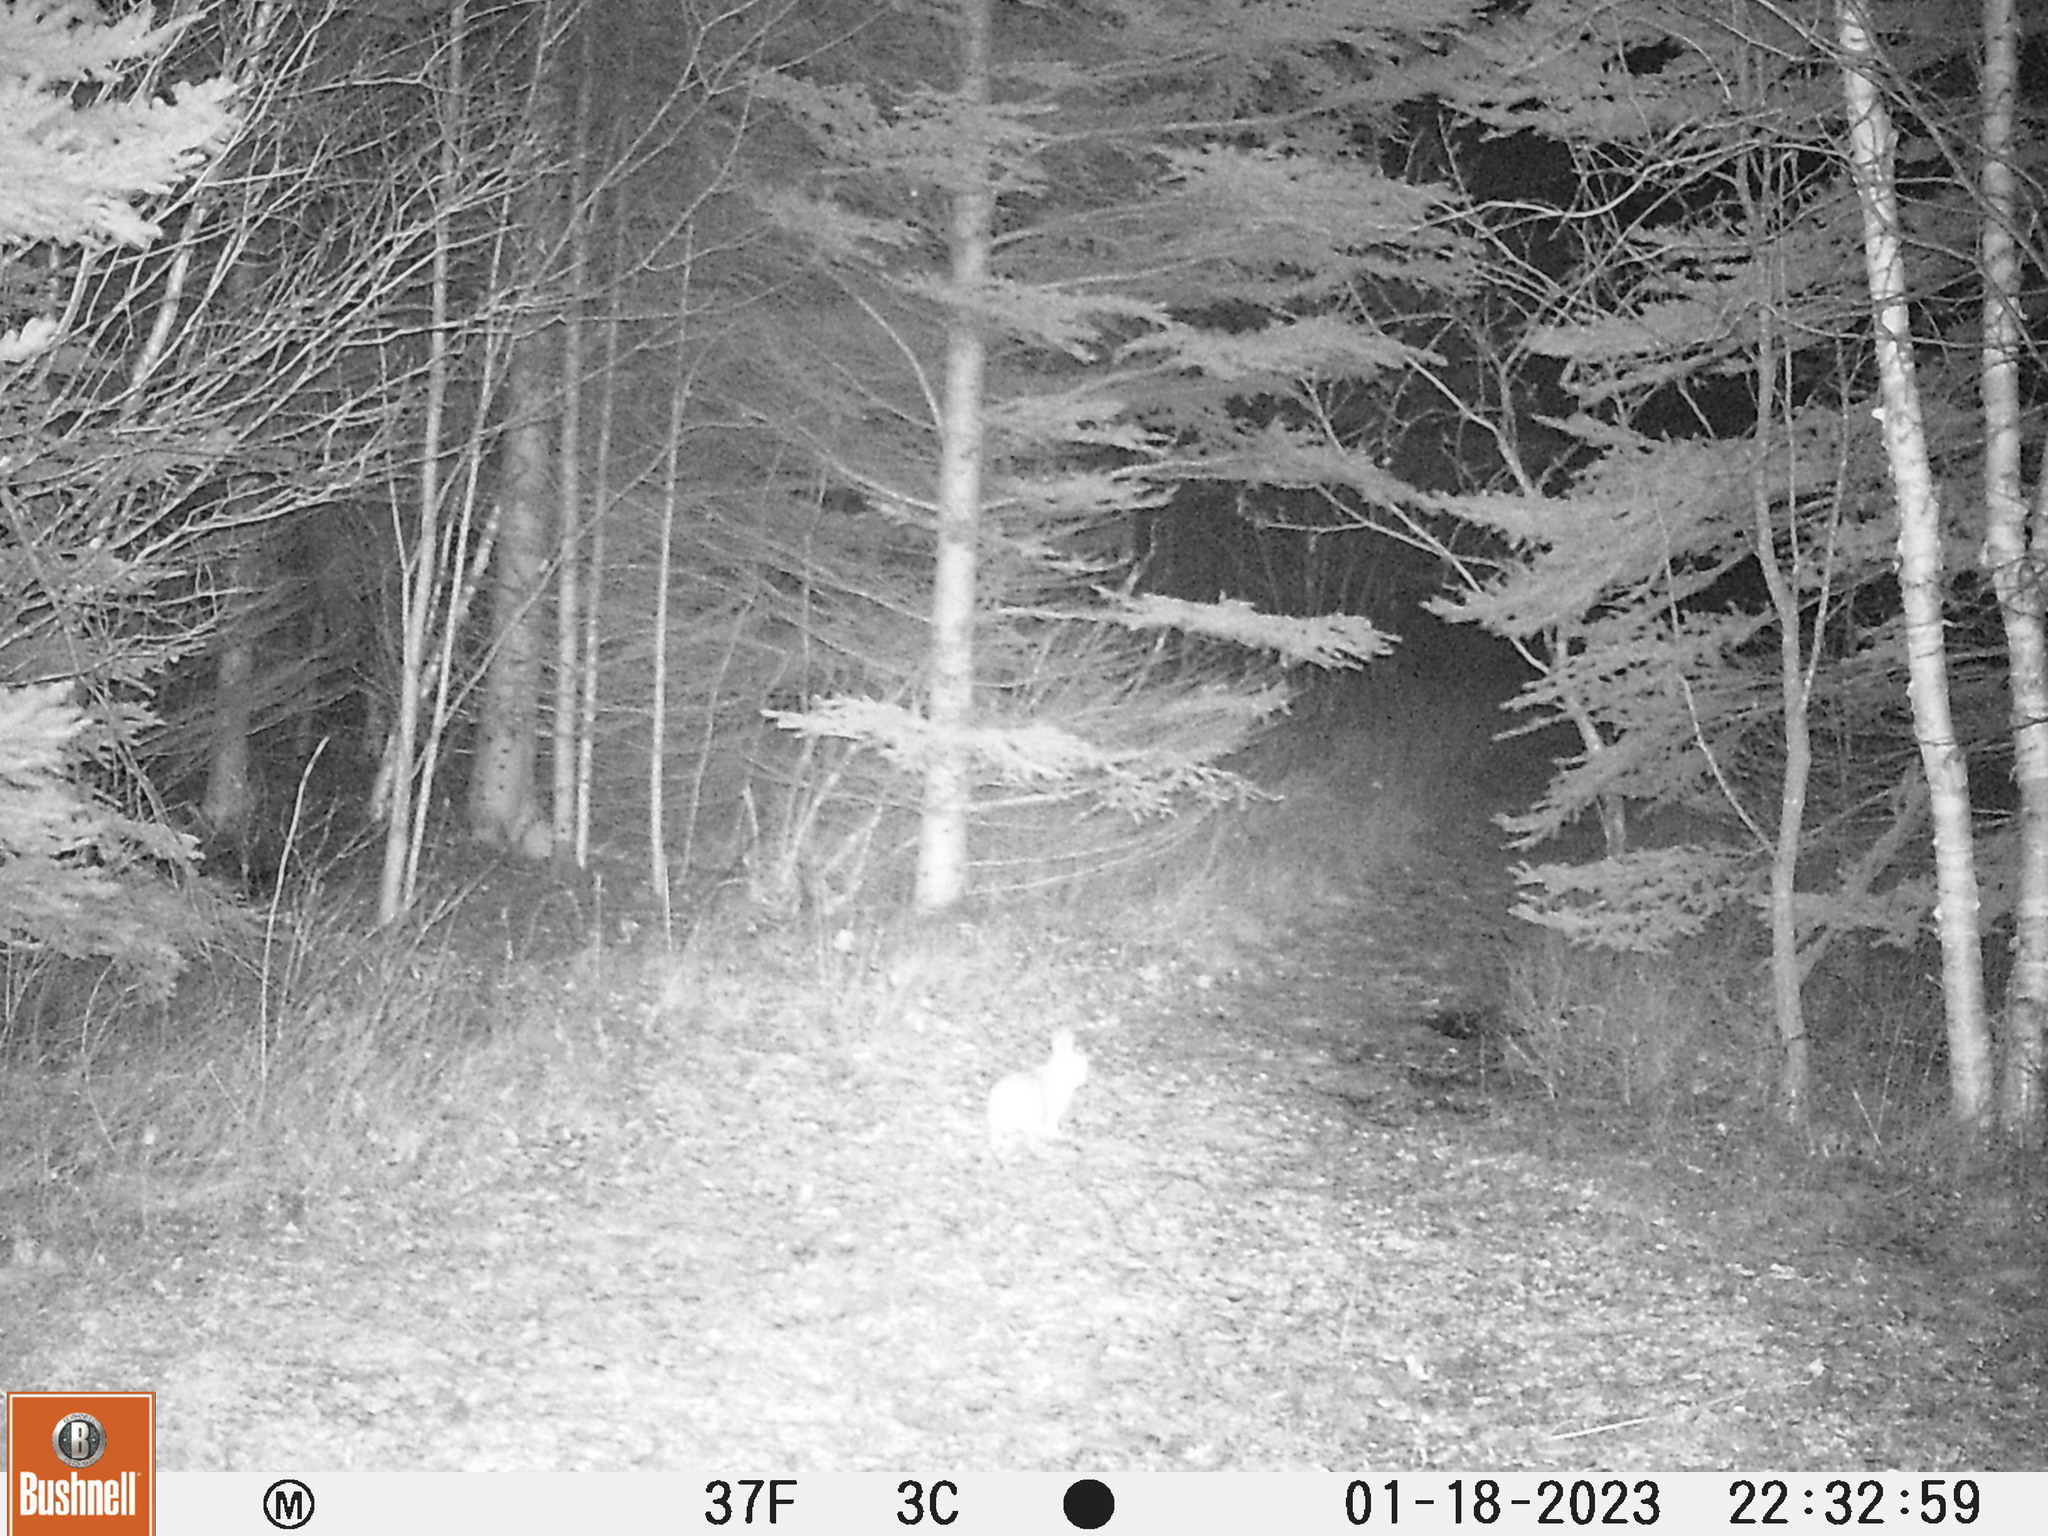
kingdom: Animalia
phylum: Chordata
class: Mammalia
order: Lagomorpha
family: Leporidae
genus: Lepus
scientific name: Lepus americanus
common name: Snowshoe hare
